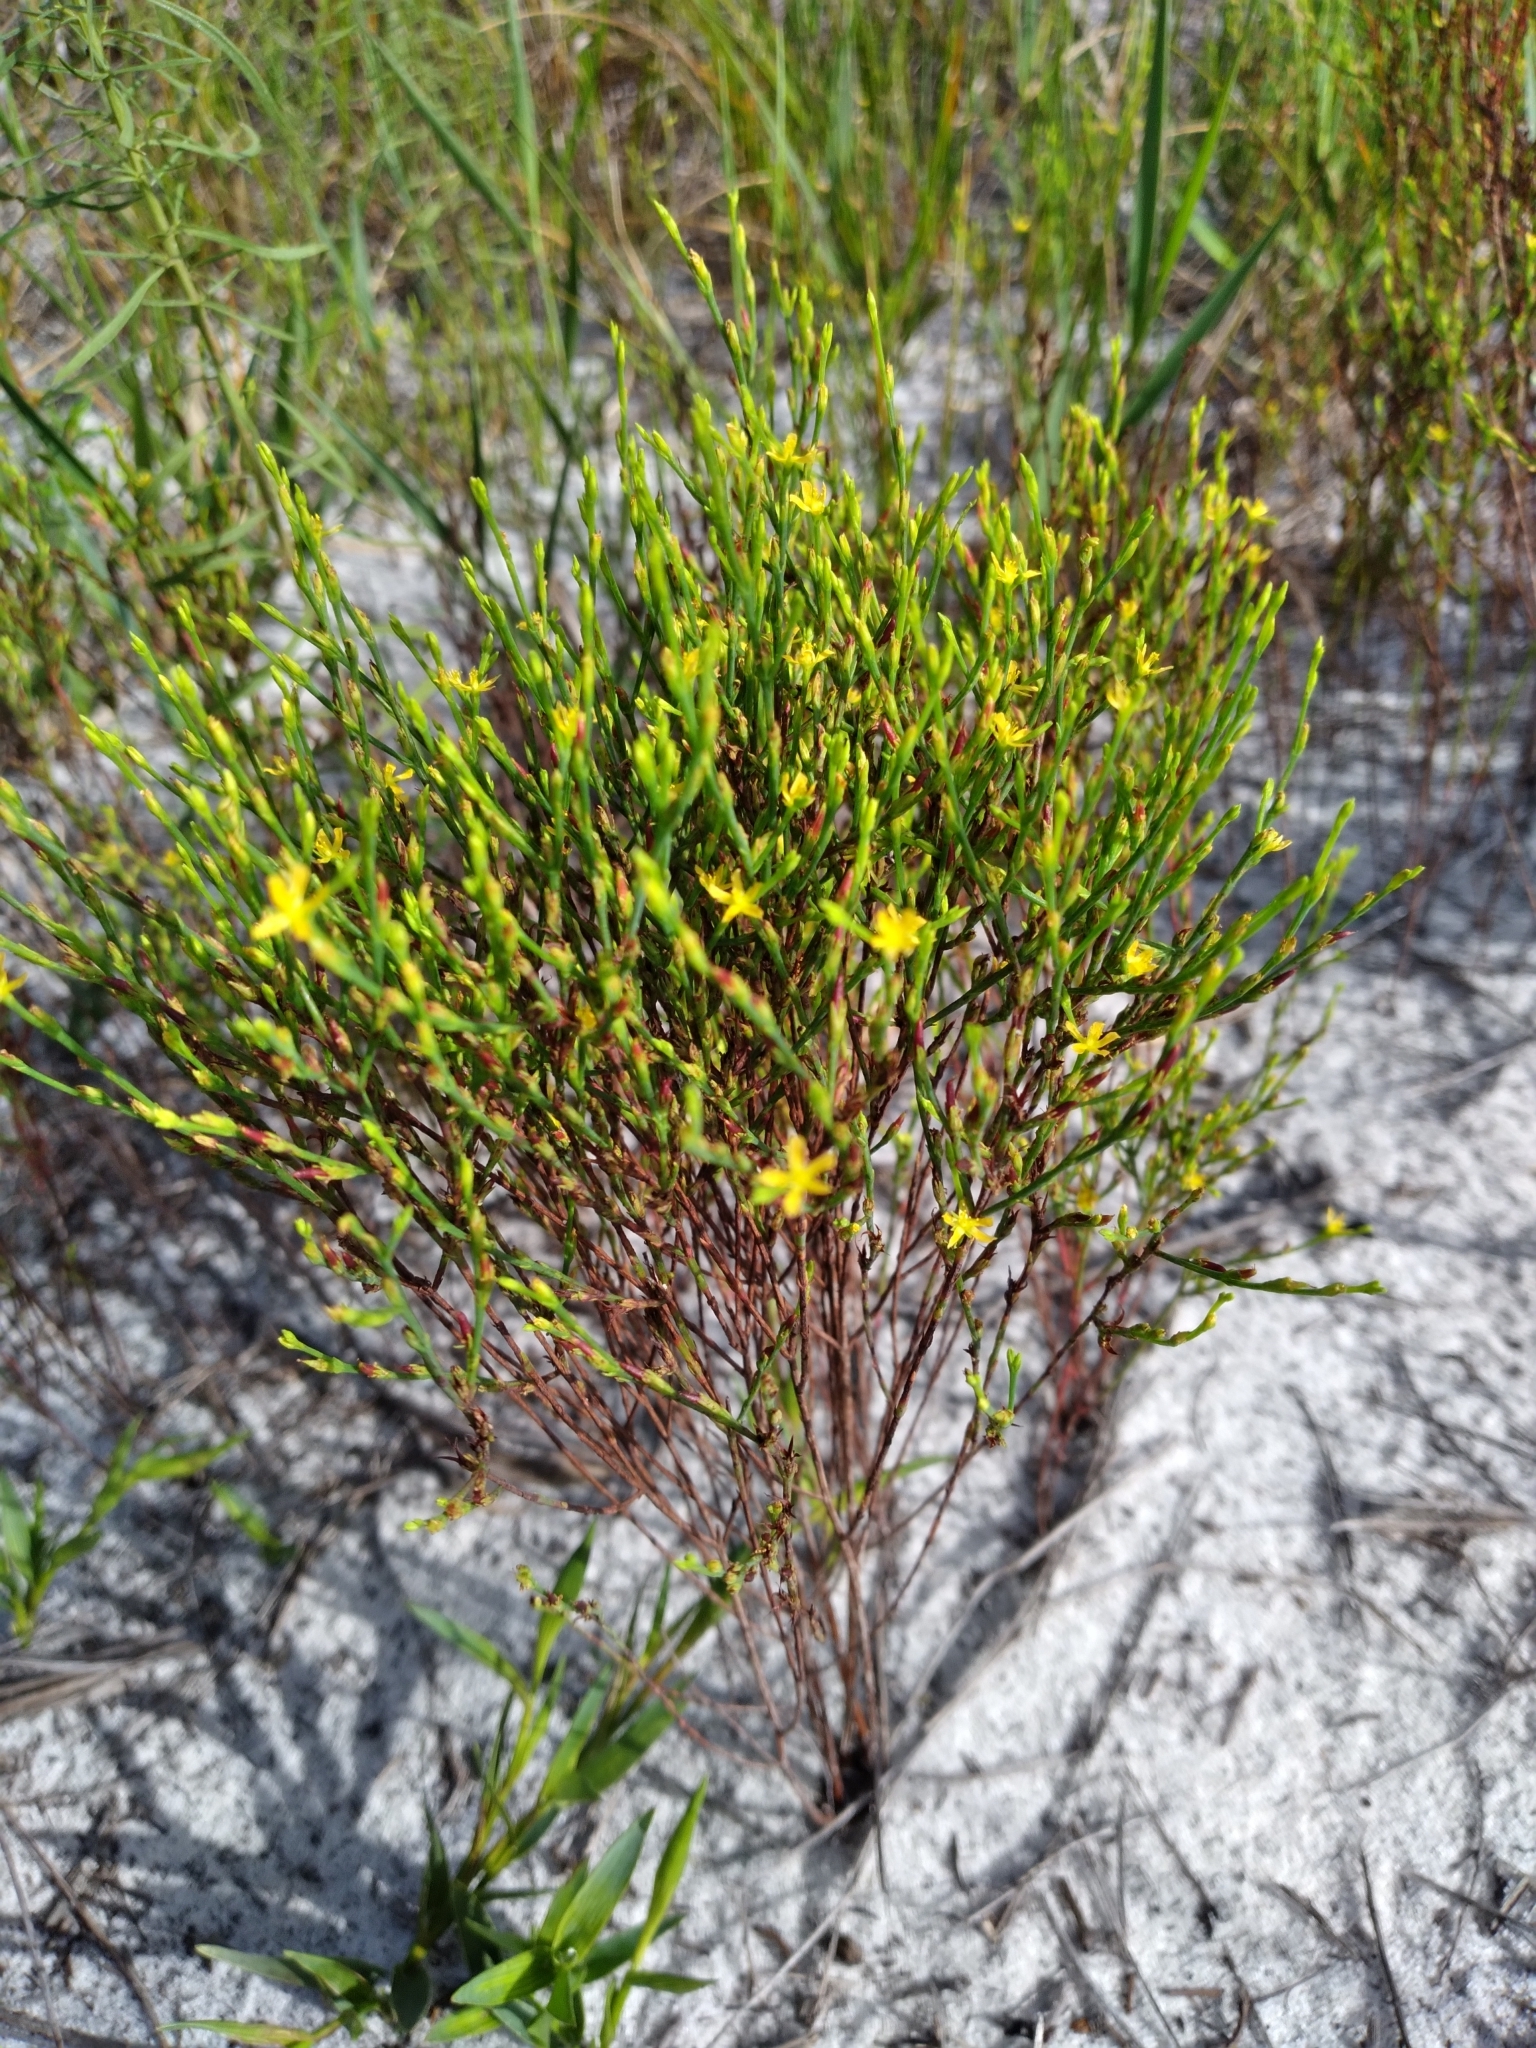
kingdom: Plantae
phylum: Tracheophyta
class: Magnoliopsida
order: Malpighiales
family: Hypericaceae
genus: Hypericum
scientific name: Hypericum gentianoides
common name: Gentian-leaved st. john's-wort
